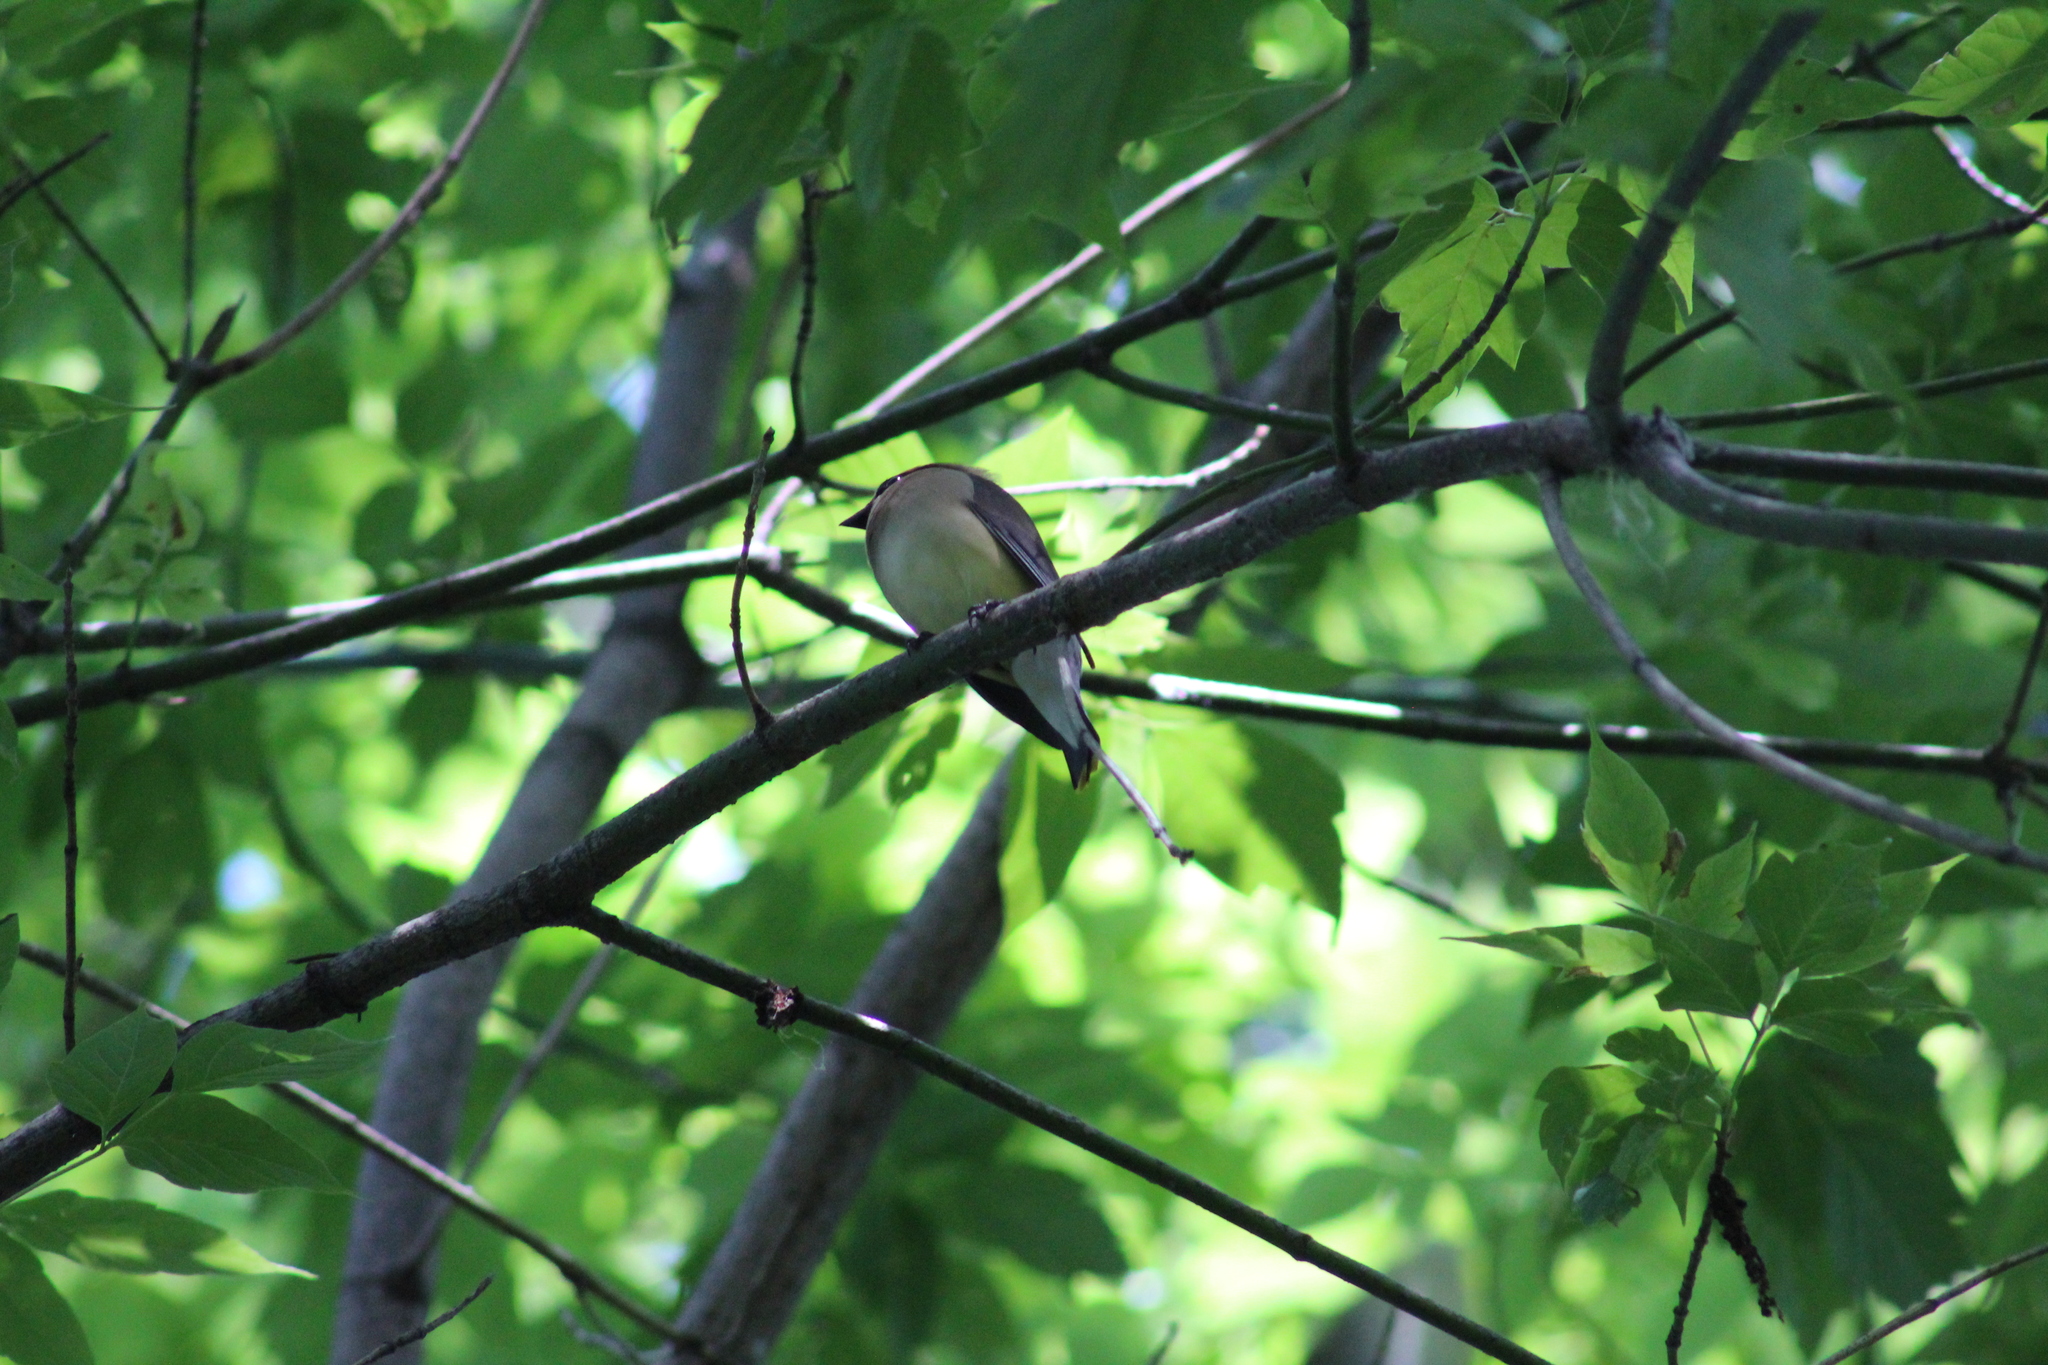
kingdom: Animalia
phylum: Chordata
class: Aves
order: Passeriformes
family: Bombycillidae
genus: Bombycilla
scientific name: Bombycilla cedrorum
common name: Cedar waxwing
